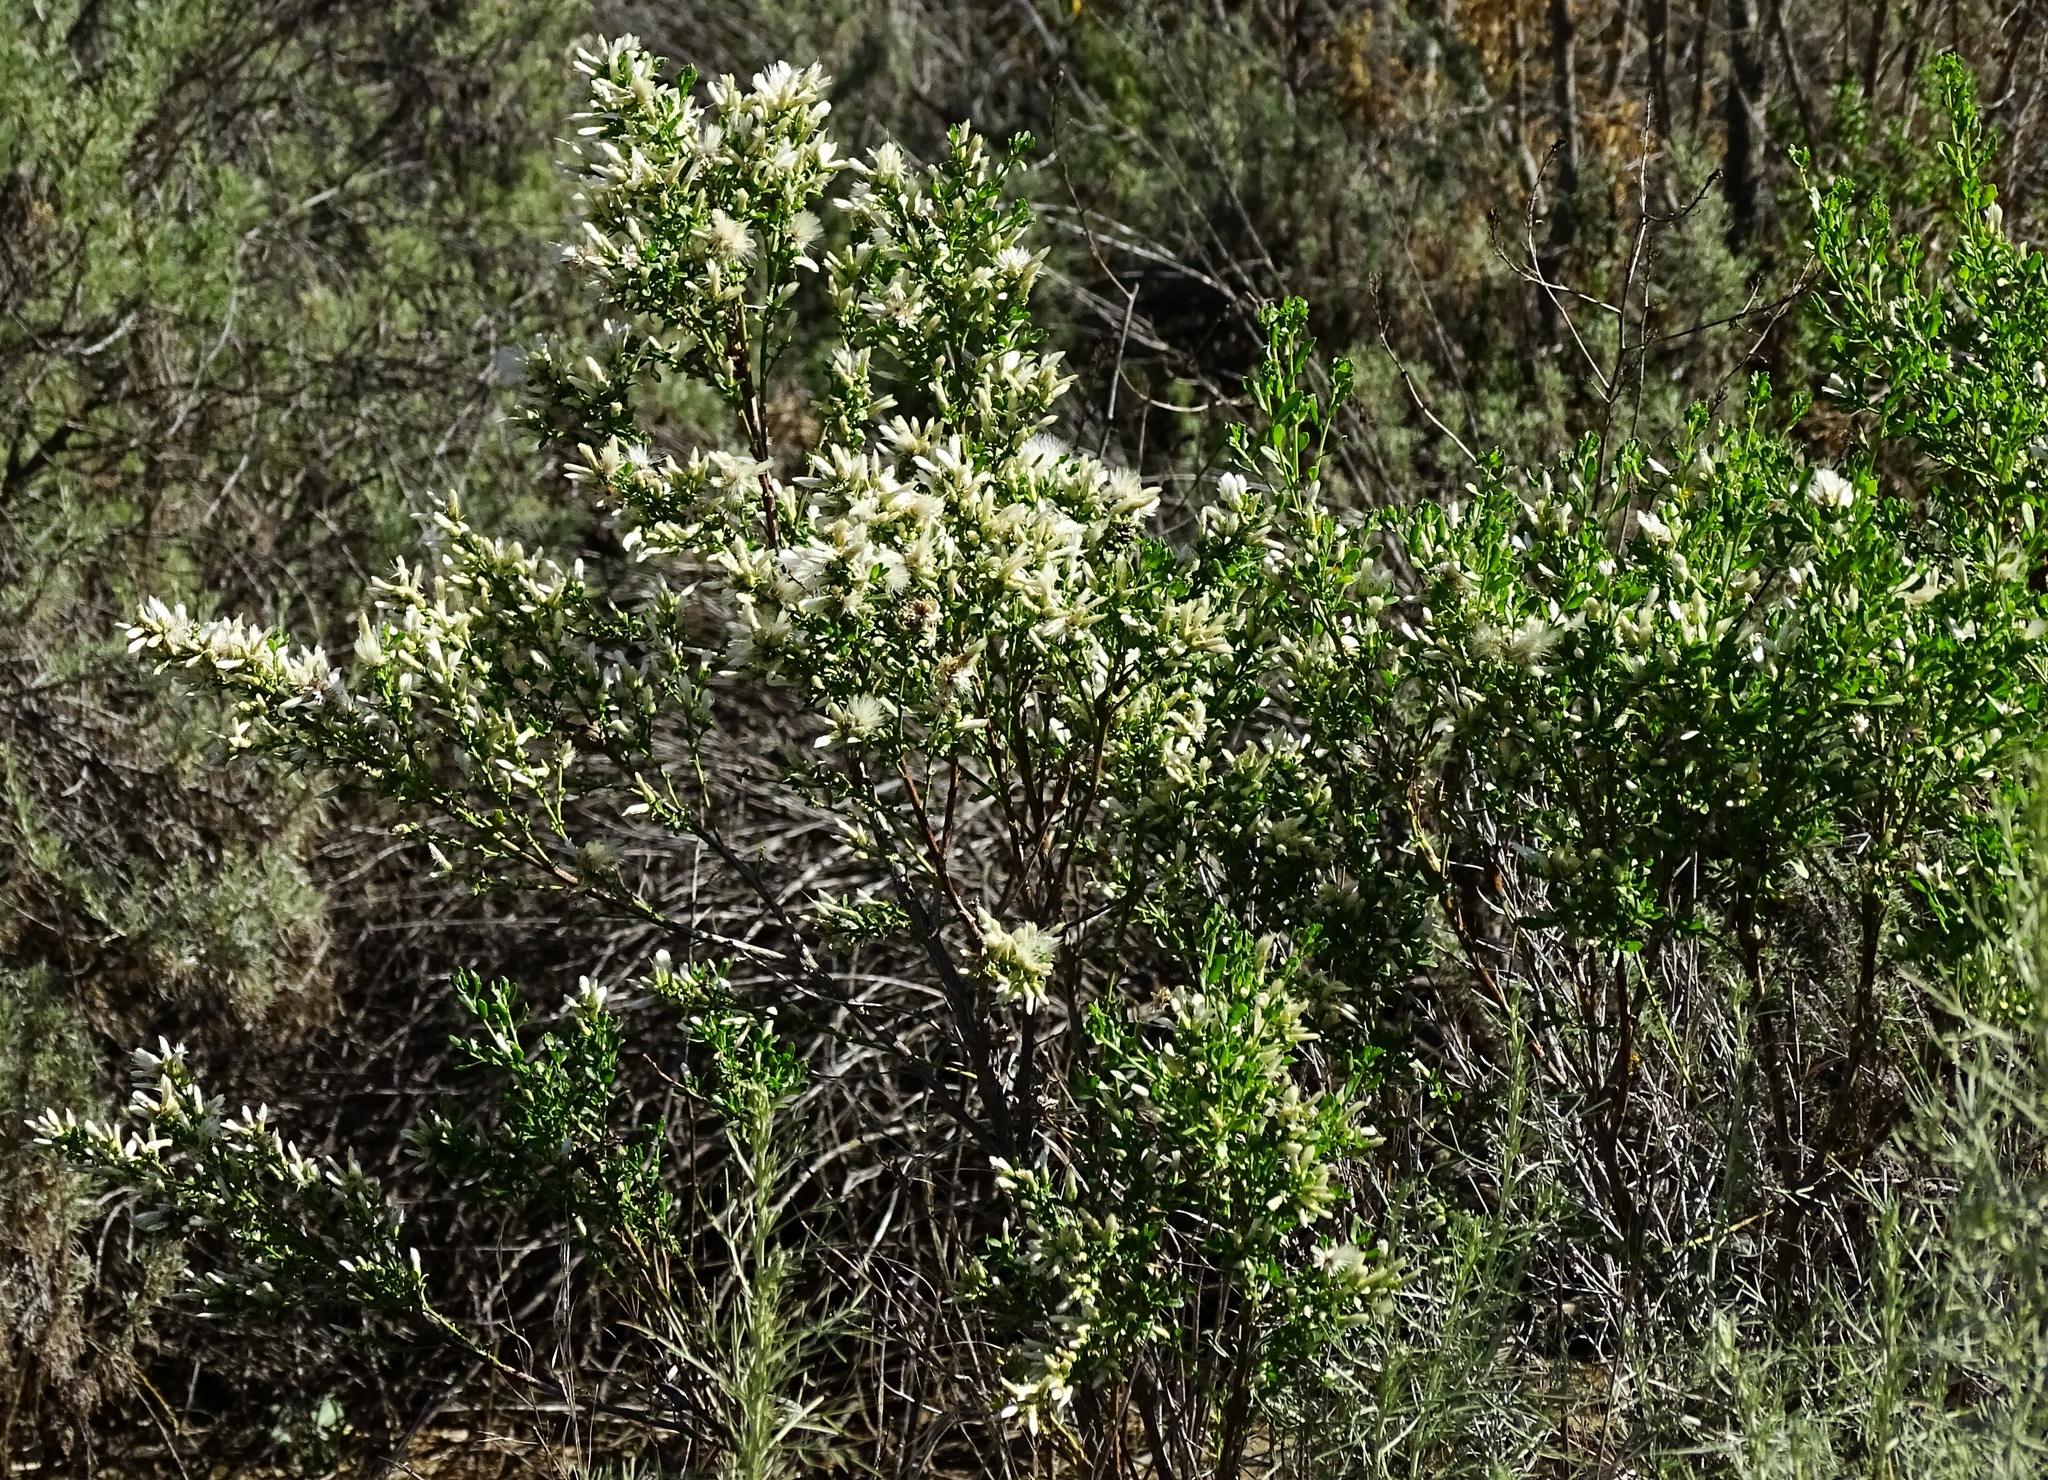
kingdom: Plantae
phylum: Tracheophyta
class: Magnoliopsida
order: Asterales
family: Asteraceae
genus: Baccharis
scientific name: Baccharis pilularis
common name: Coyotebrush
